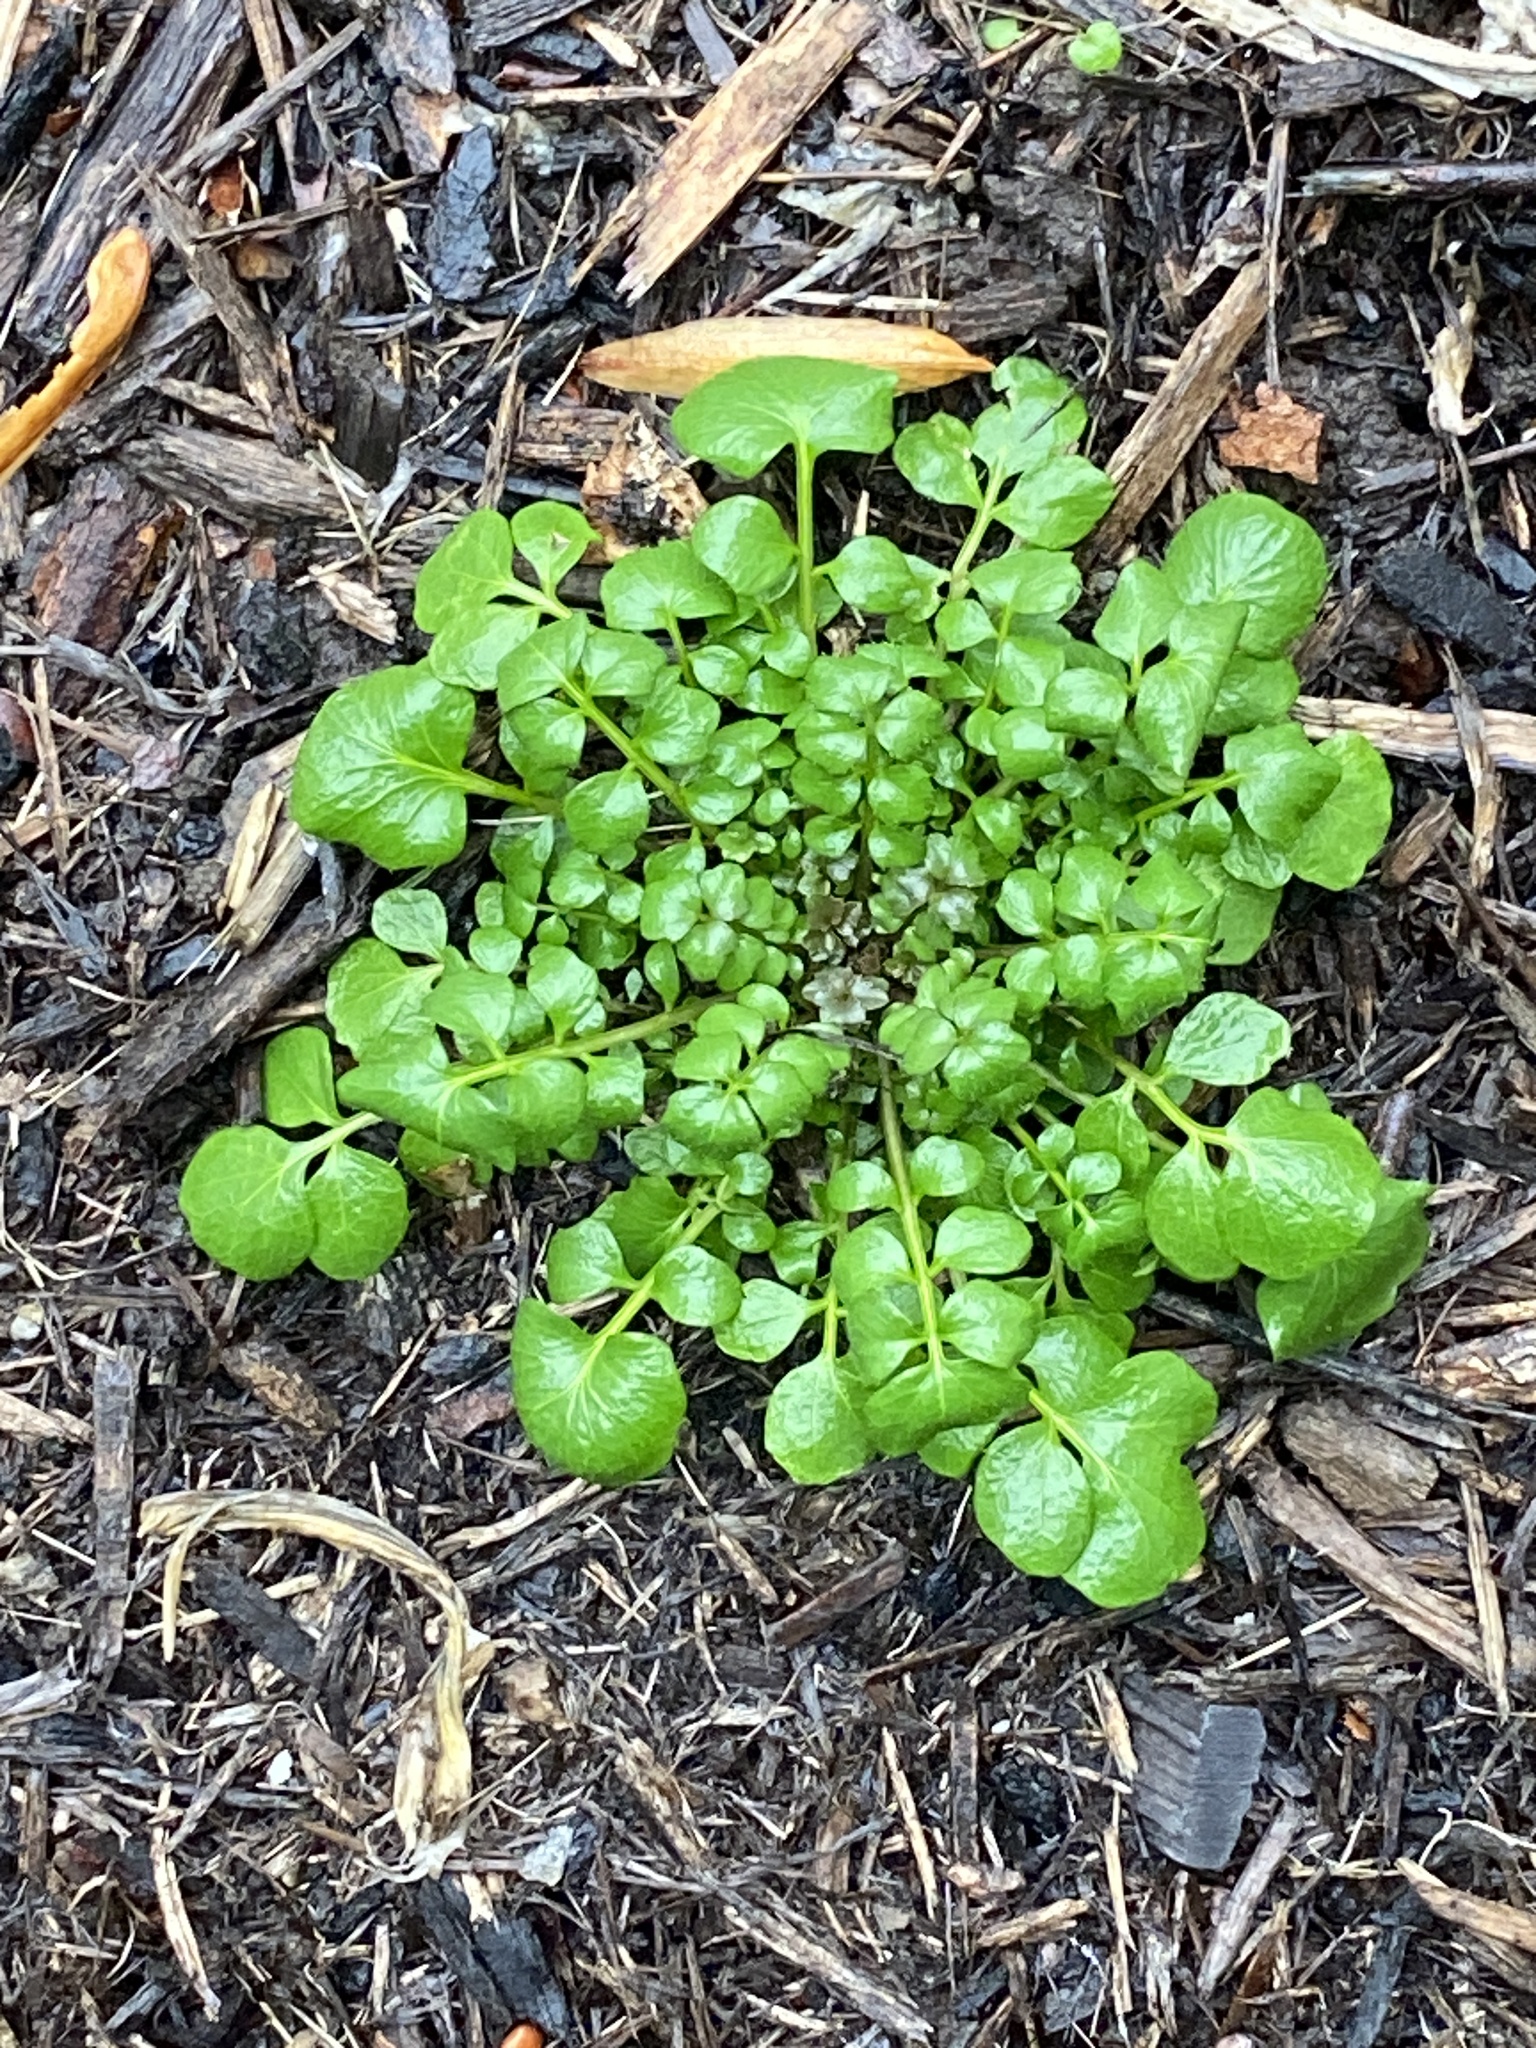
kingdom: Plantae
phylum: Tracheophyta
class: Magnoliopsida
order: Brassicales
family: Brassicaceae
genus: Cardamine
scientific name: Cardamine hirsuta
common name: Hairy bittercress
